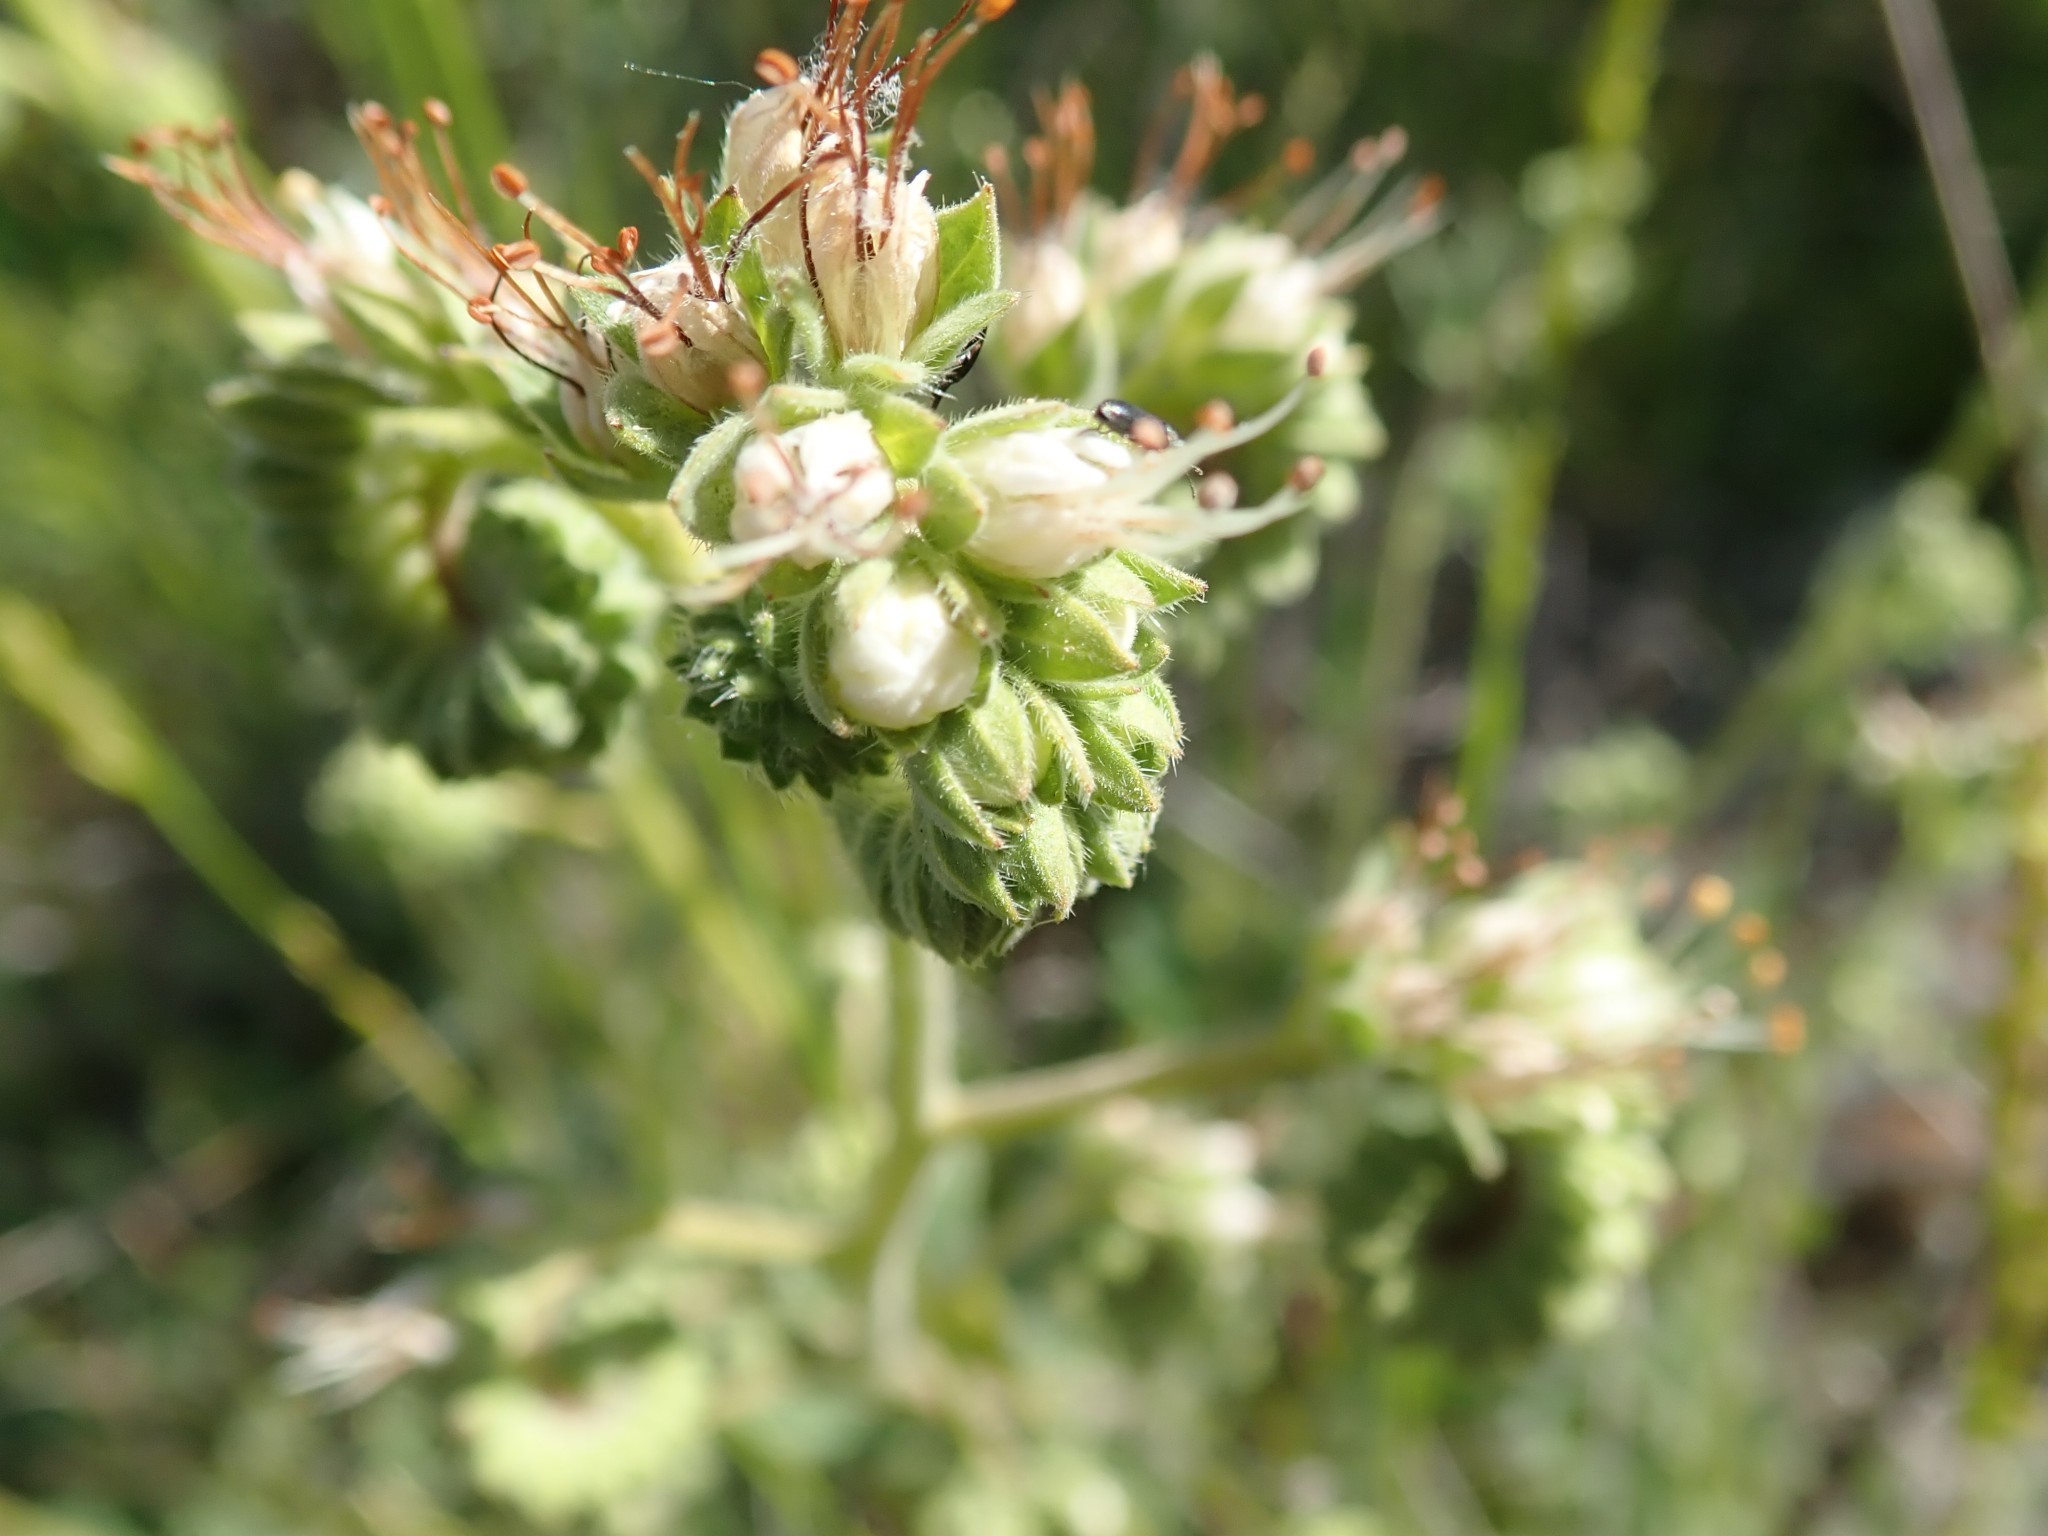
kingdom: Plantae
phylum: Tracheophyta
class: Magnoliopsida
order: Boraginales
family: Hydrophyllaceae
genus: Phacelia
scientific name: Phacelia imbricata
